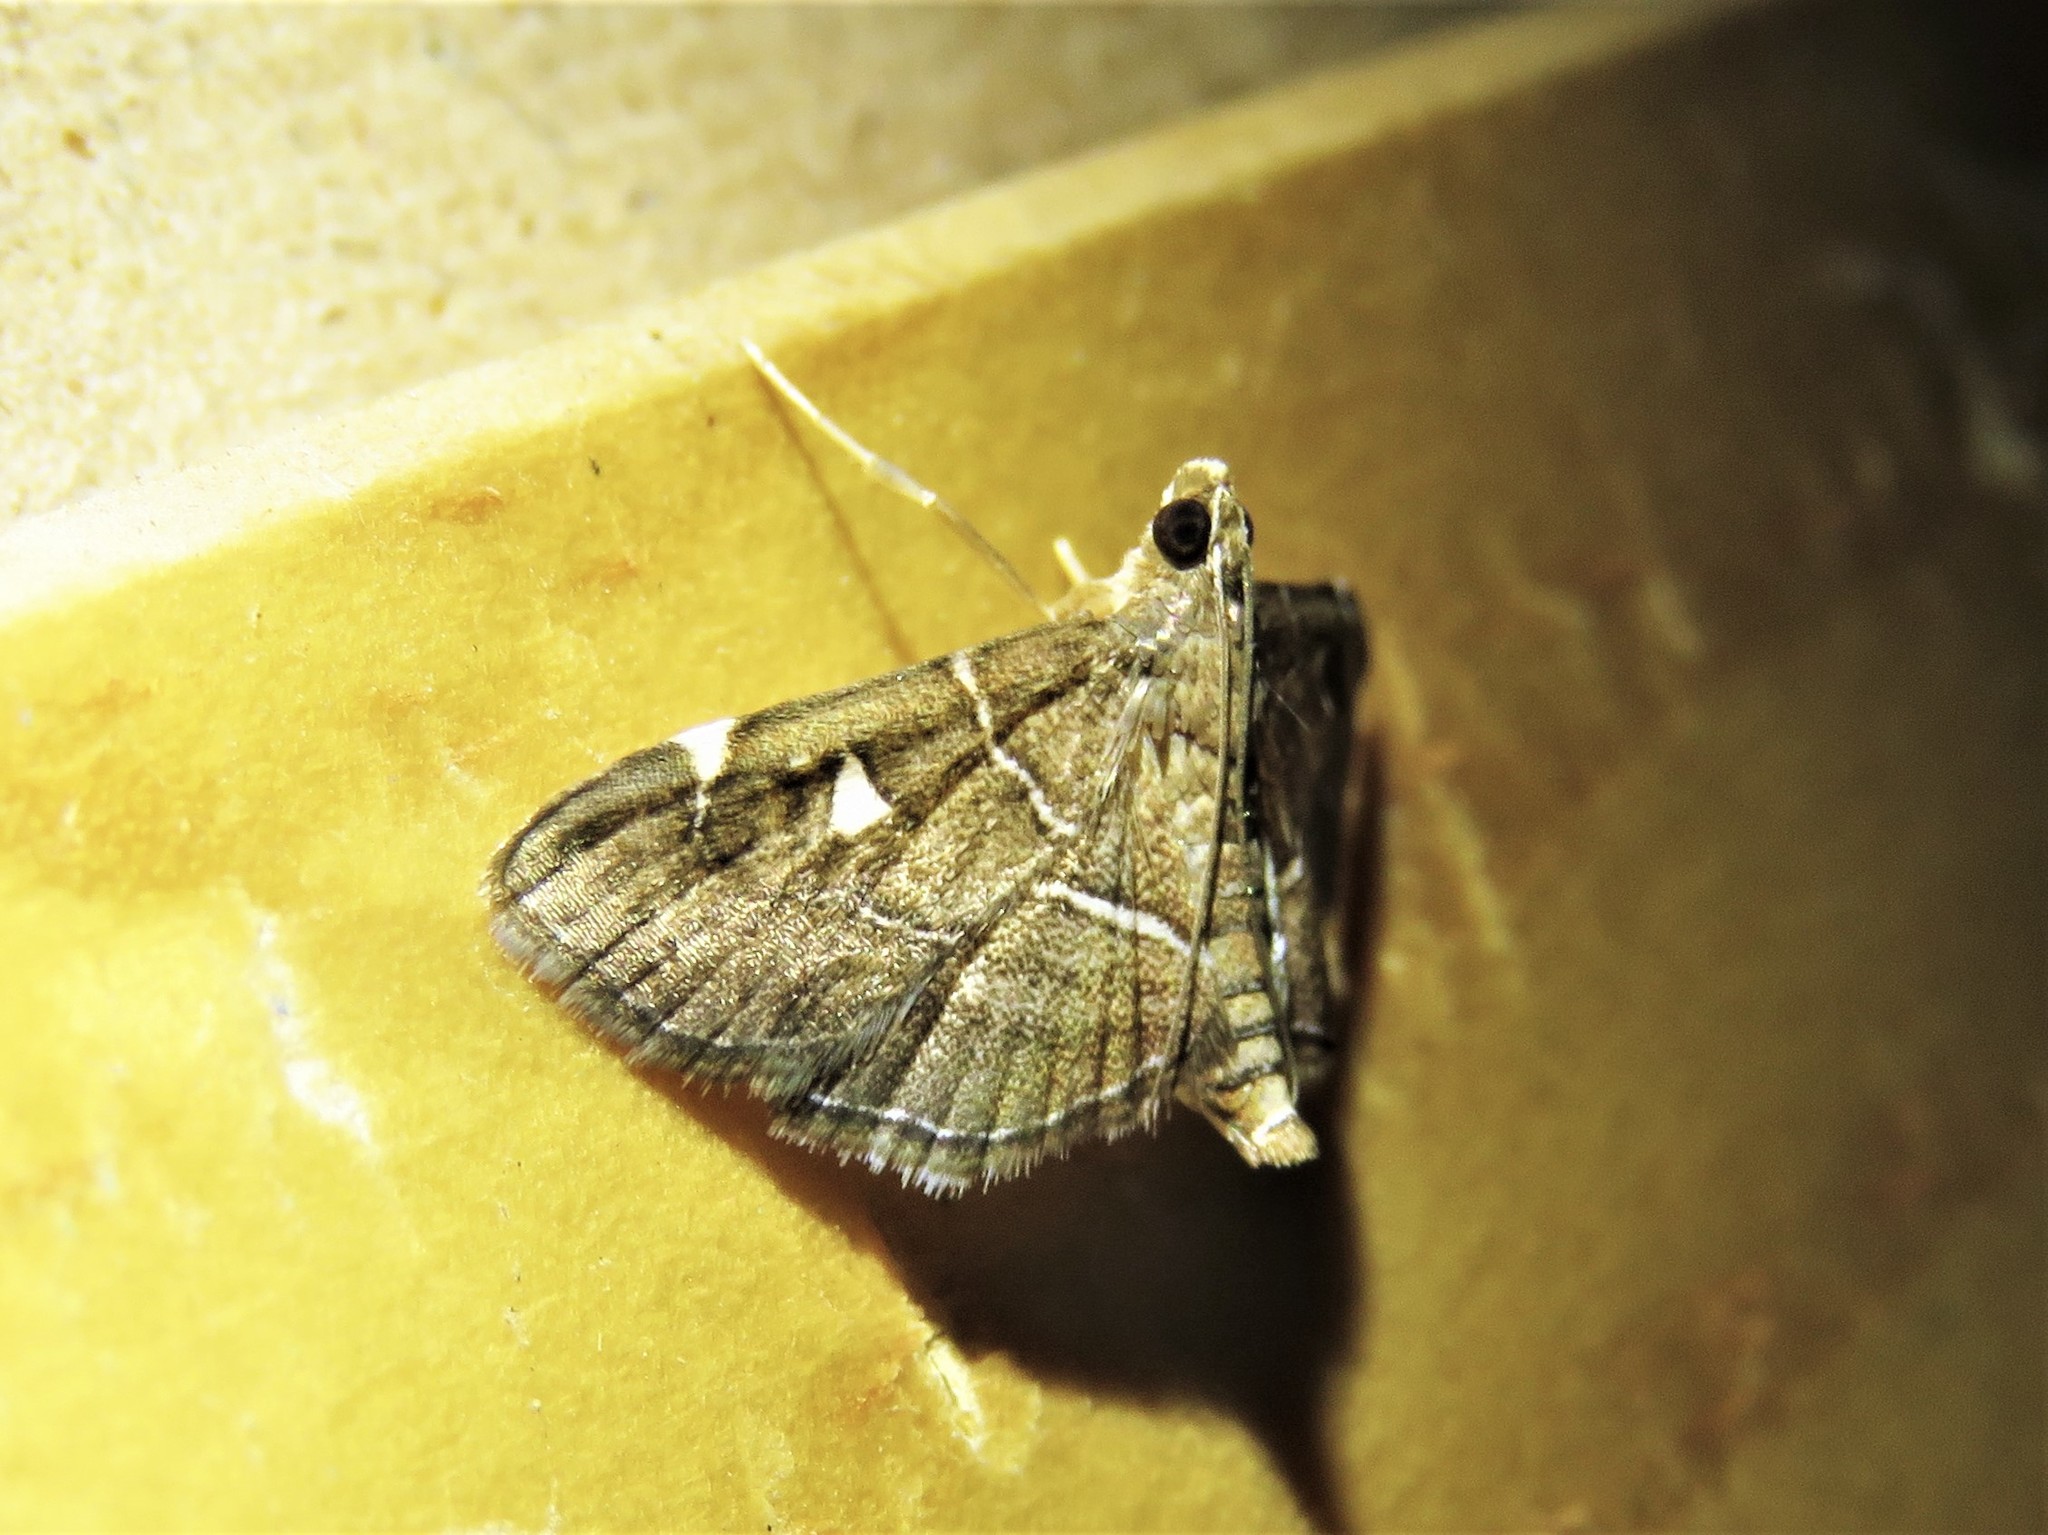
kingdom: Animalia
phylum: Arthropoda
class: Insecta
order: Lepidoptera
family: Crambidae
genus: Lamprosema
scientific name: Lamprosema victoriae
